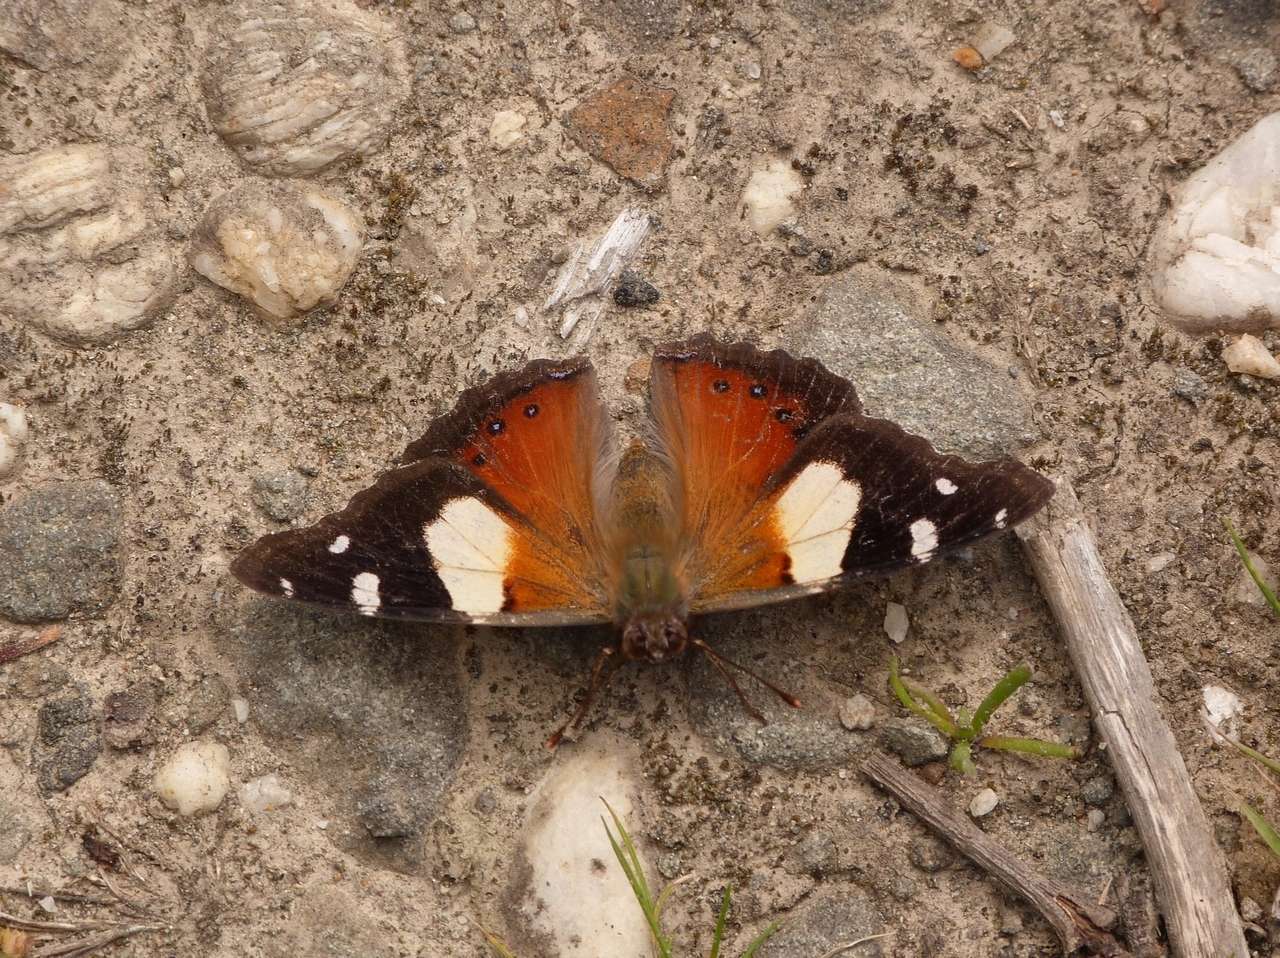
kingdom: Animalia
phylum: Arthropoda
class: Insecta
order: Lepidoptera
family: Nymphalidae
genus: Vanessa
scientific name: Vanessa itea
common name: Yellow admiral
